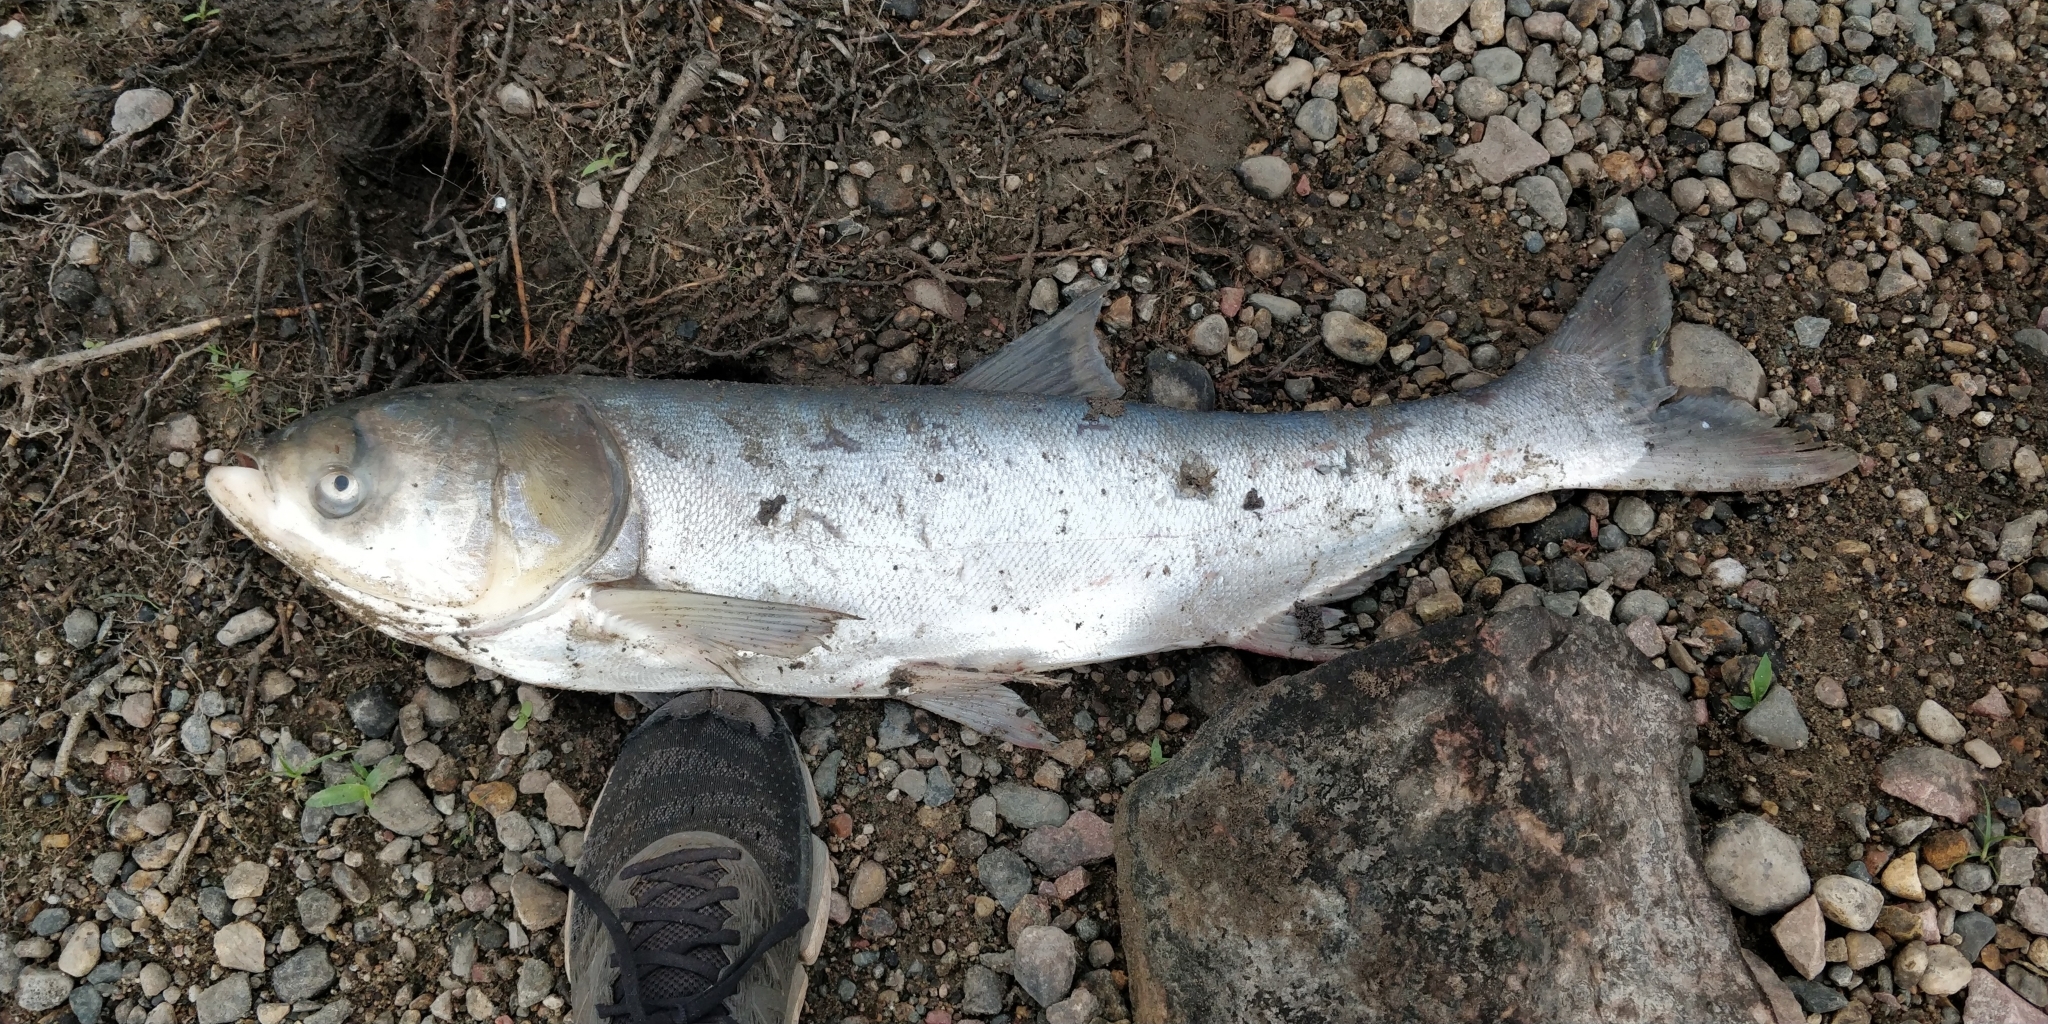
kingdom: Animalia
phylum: Chordata
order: Cypriniformes
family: Cyprinidae
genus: Hypophthalmichthys
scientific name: Hypophthalmichthys molitrix
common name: Silver carp
